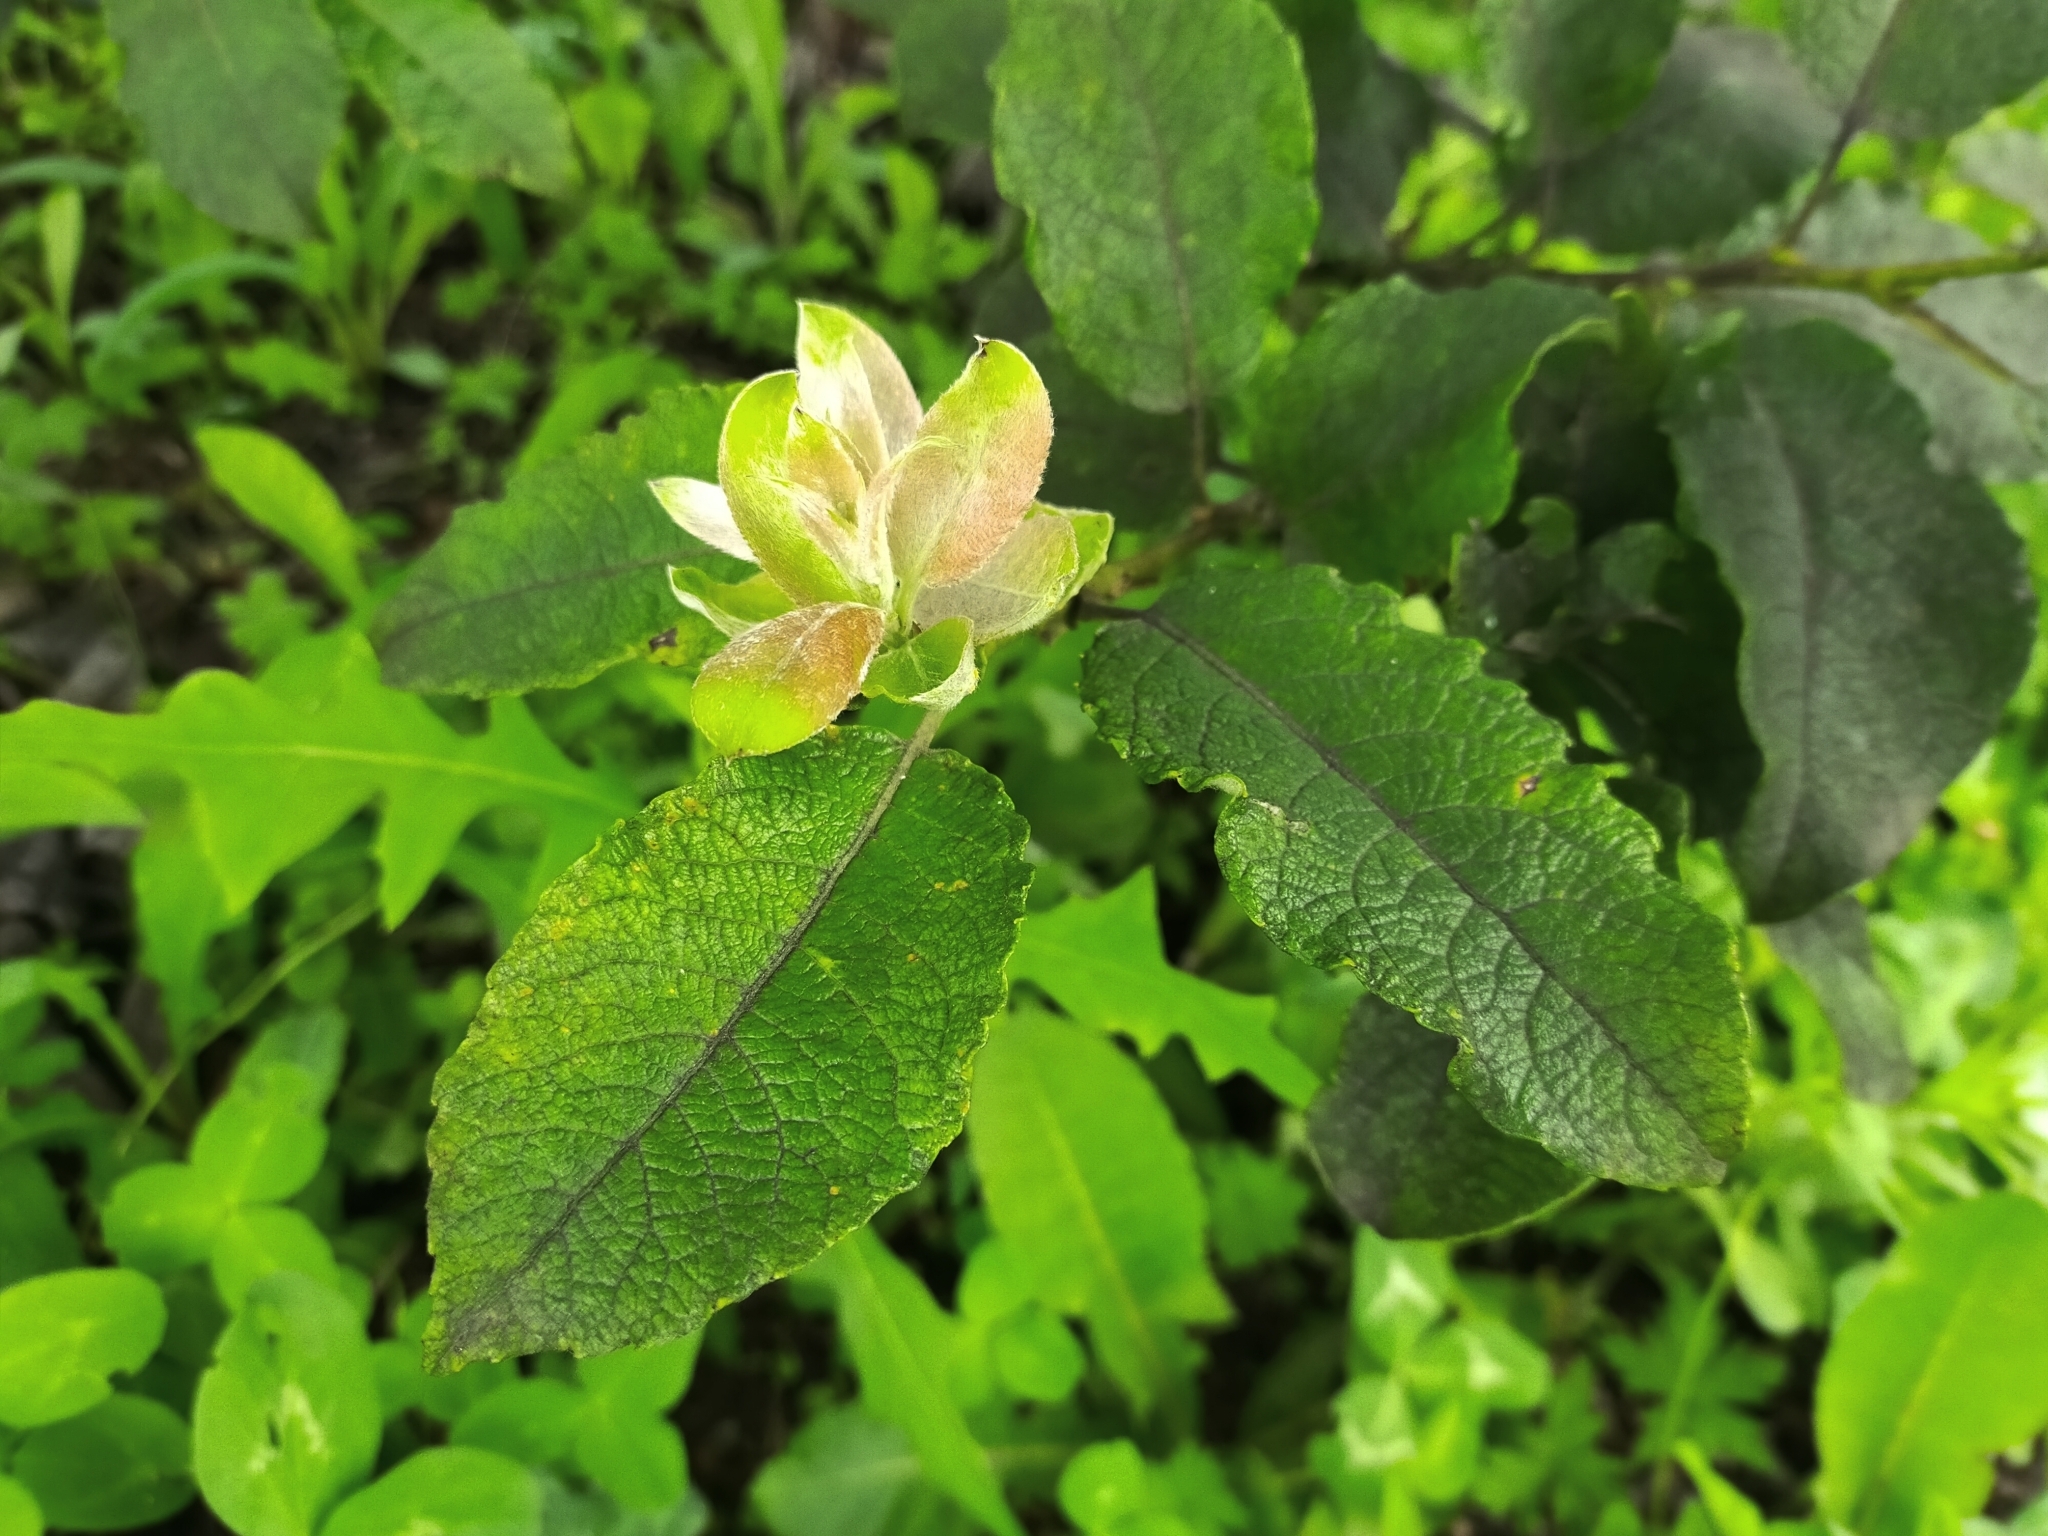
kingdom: Plantae
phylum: Tracheophyta
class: Magnoliopsida
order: Malpighiales
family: Salicaceae
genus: Salix
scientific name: Salix caprea
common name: Goat willow
